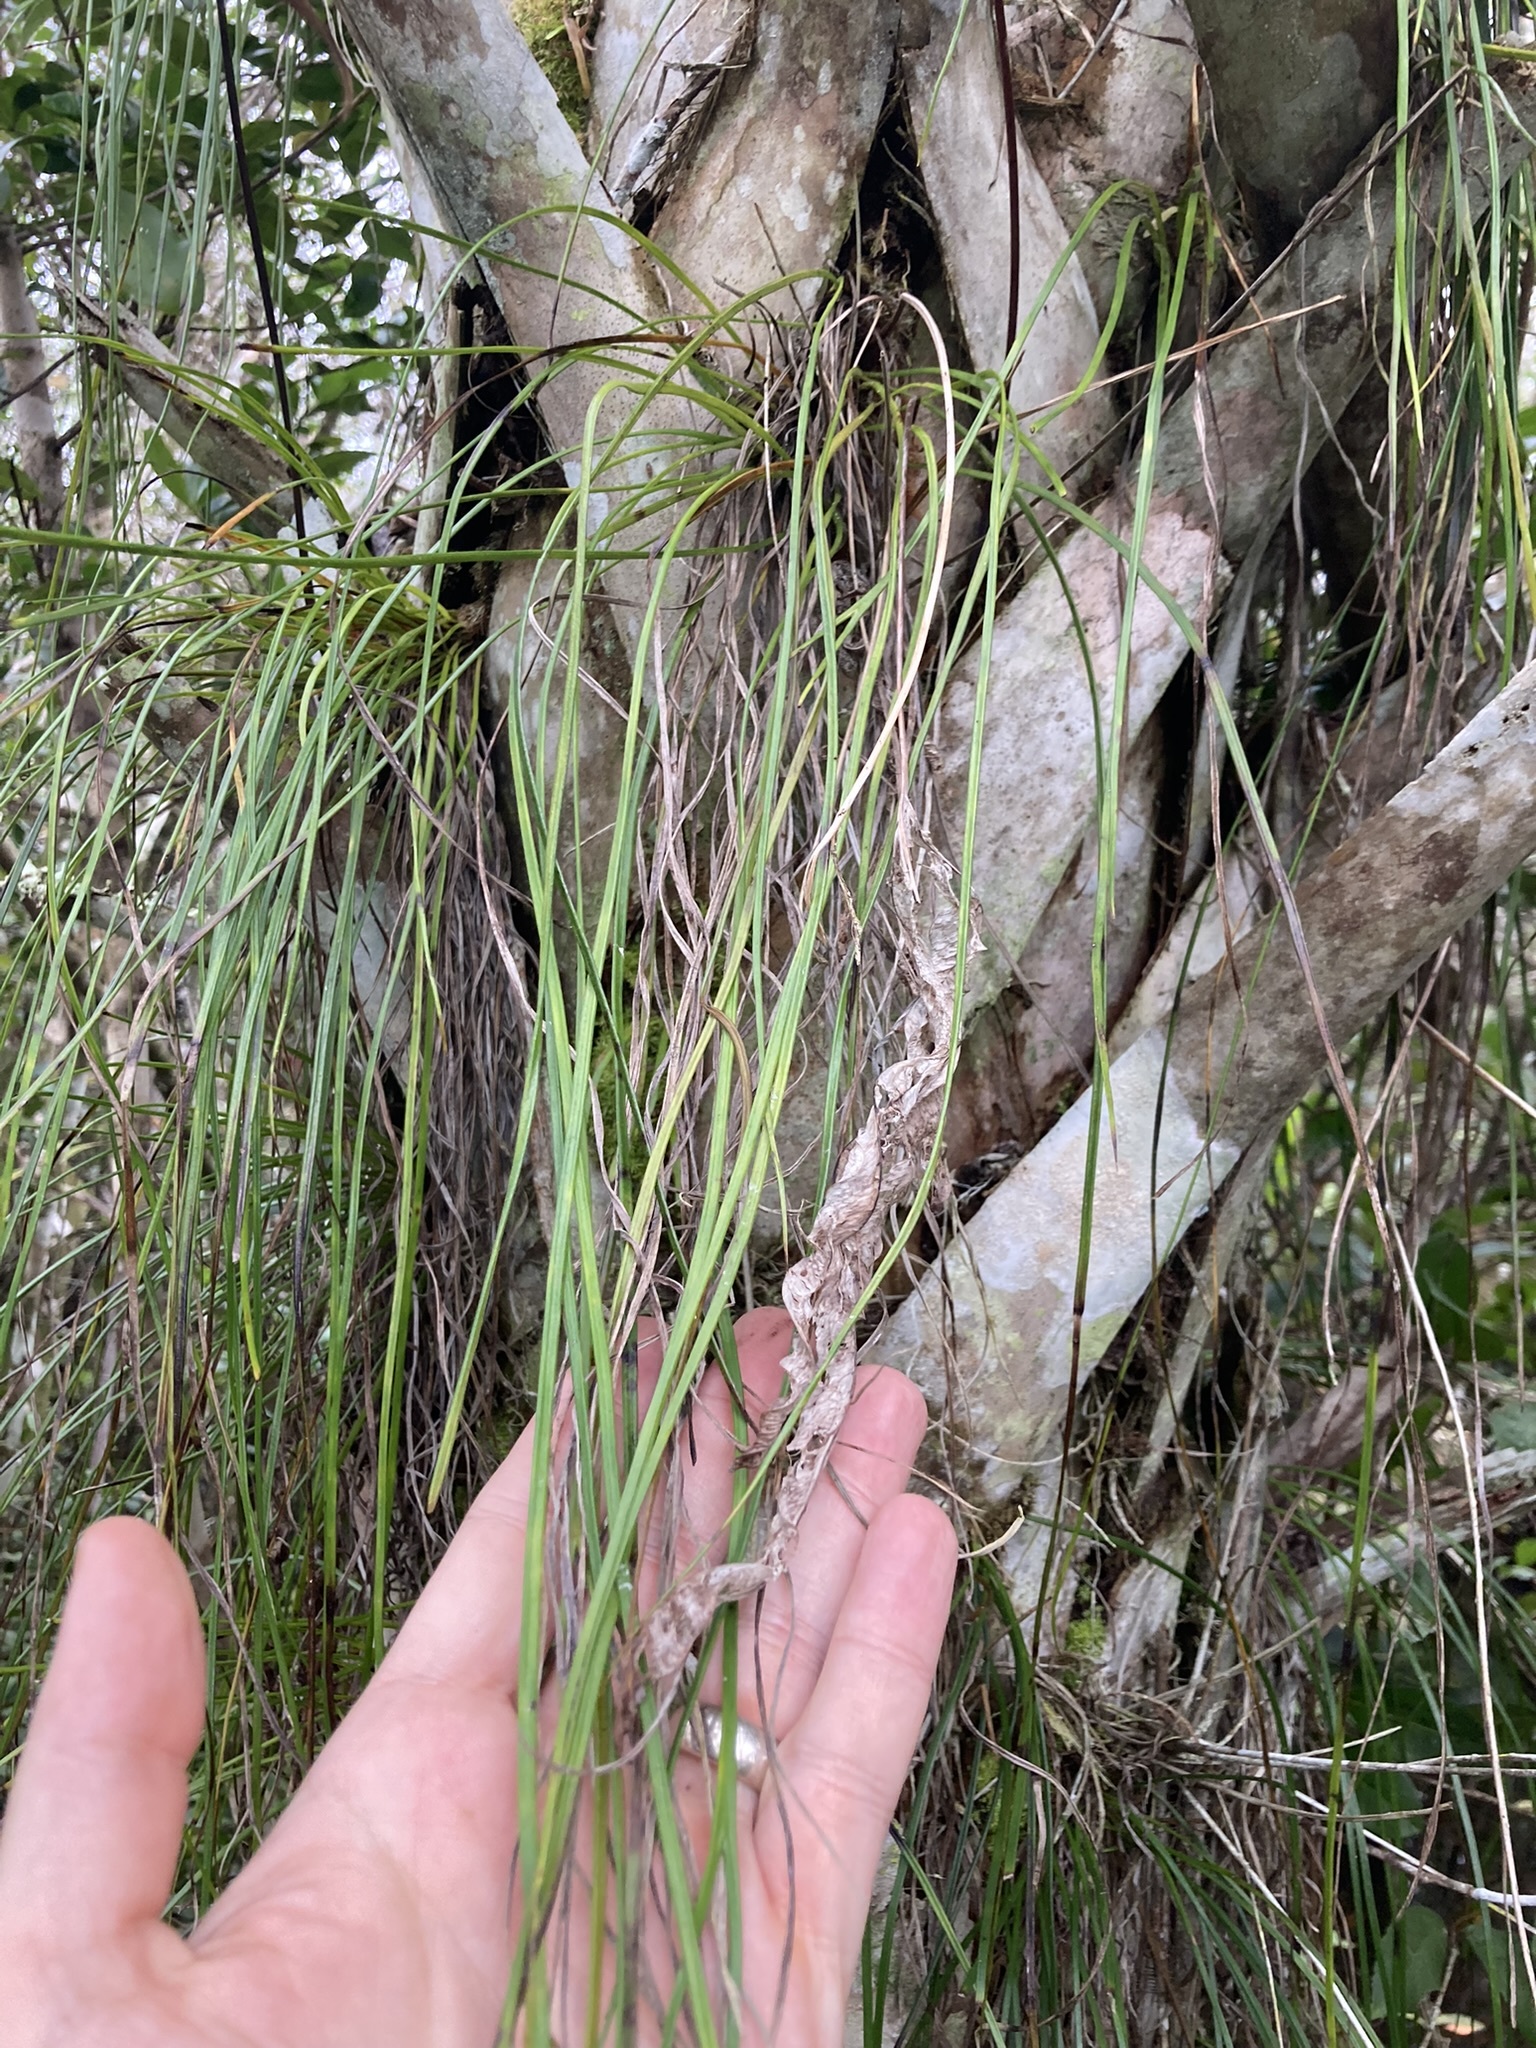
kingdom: Plantae
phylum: Tracheophyta
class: Polypodiopsida
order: Polypodiales
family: Pteridaceae
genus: Vittaria
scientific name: Vittaria lineata
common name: Shoestring fern
